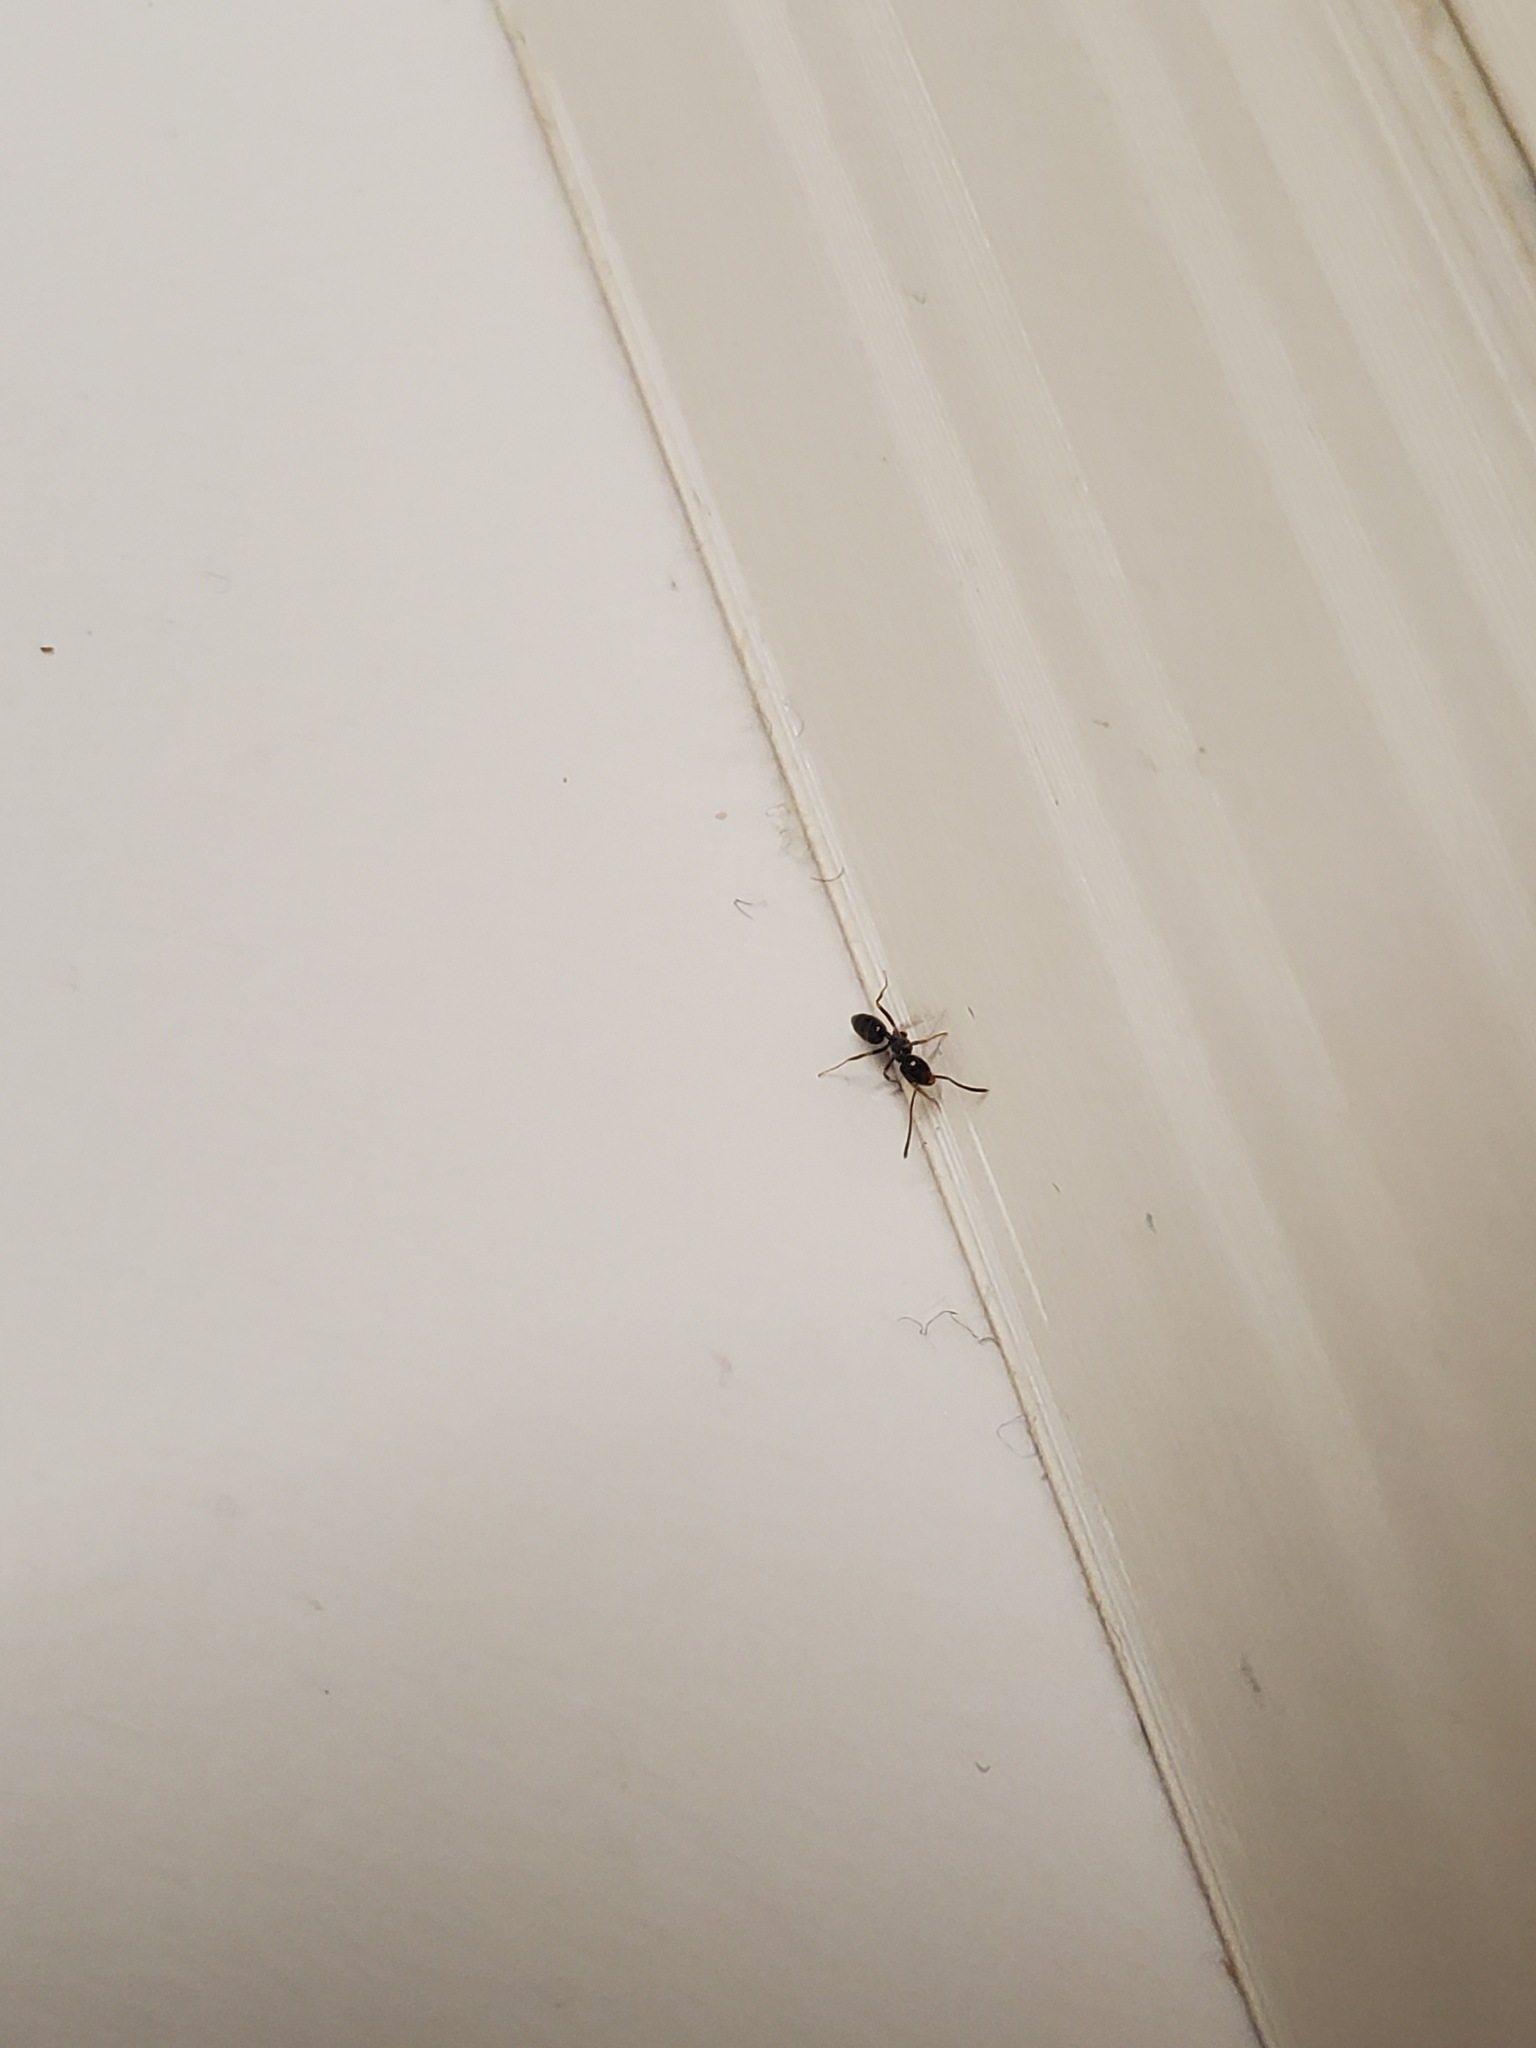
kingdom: Animalia
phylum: Arthropoda
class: Insecta
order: Hymenoptera
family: Formicidae
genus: Tapinoma
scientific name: Tapinoma sessile
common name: Odorous house ant
